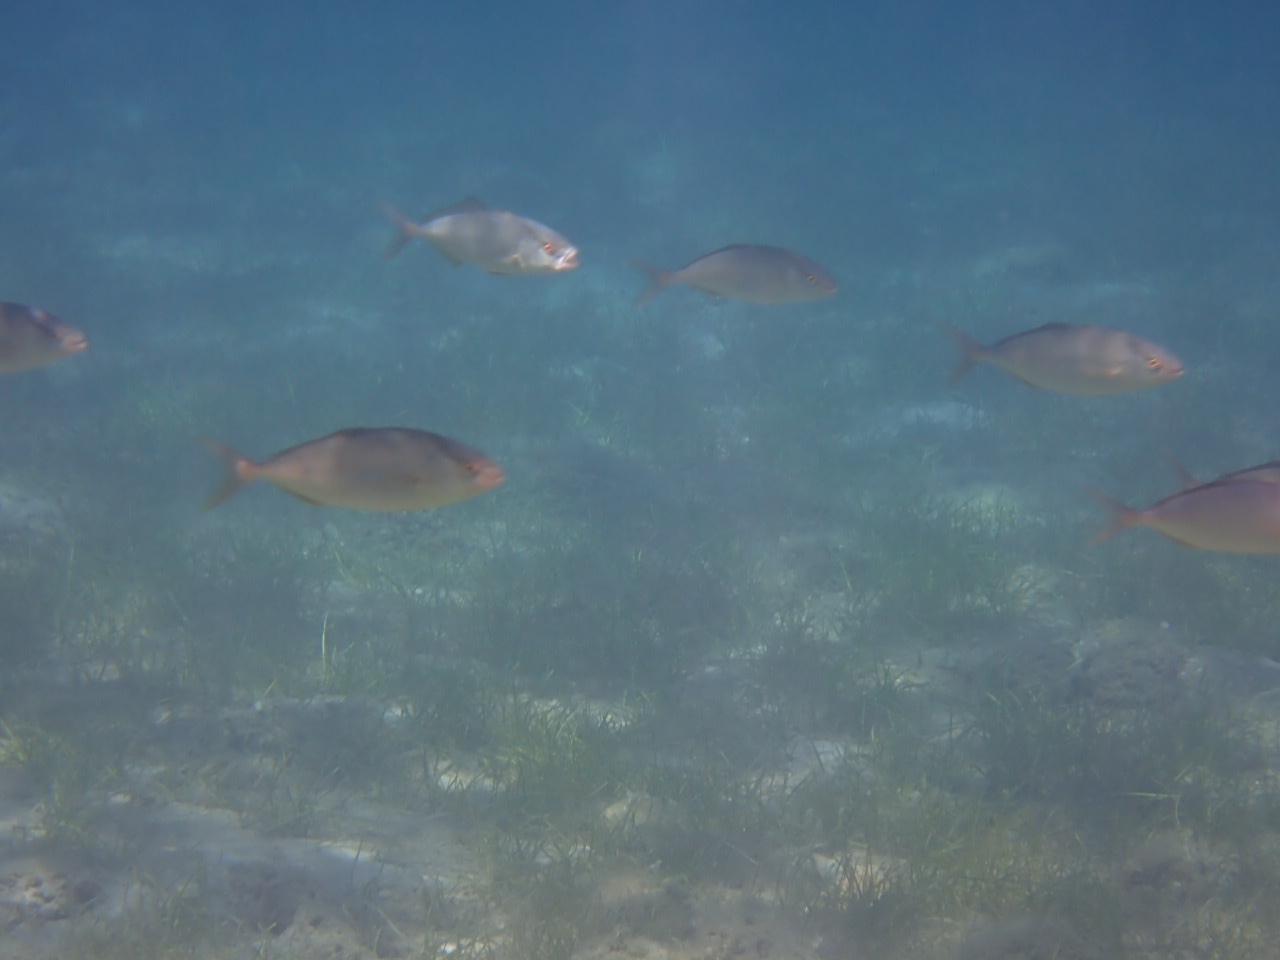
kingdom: Animalia
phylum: Chordata
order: Perciformes
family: Carangidae
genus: Seriola
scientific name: Seriola dumerili
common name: Greater amberjack
